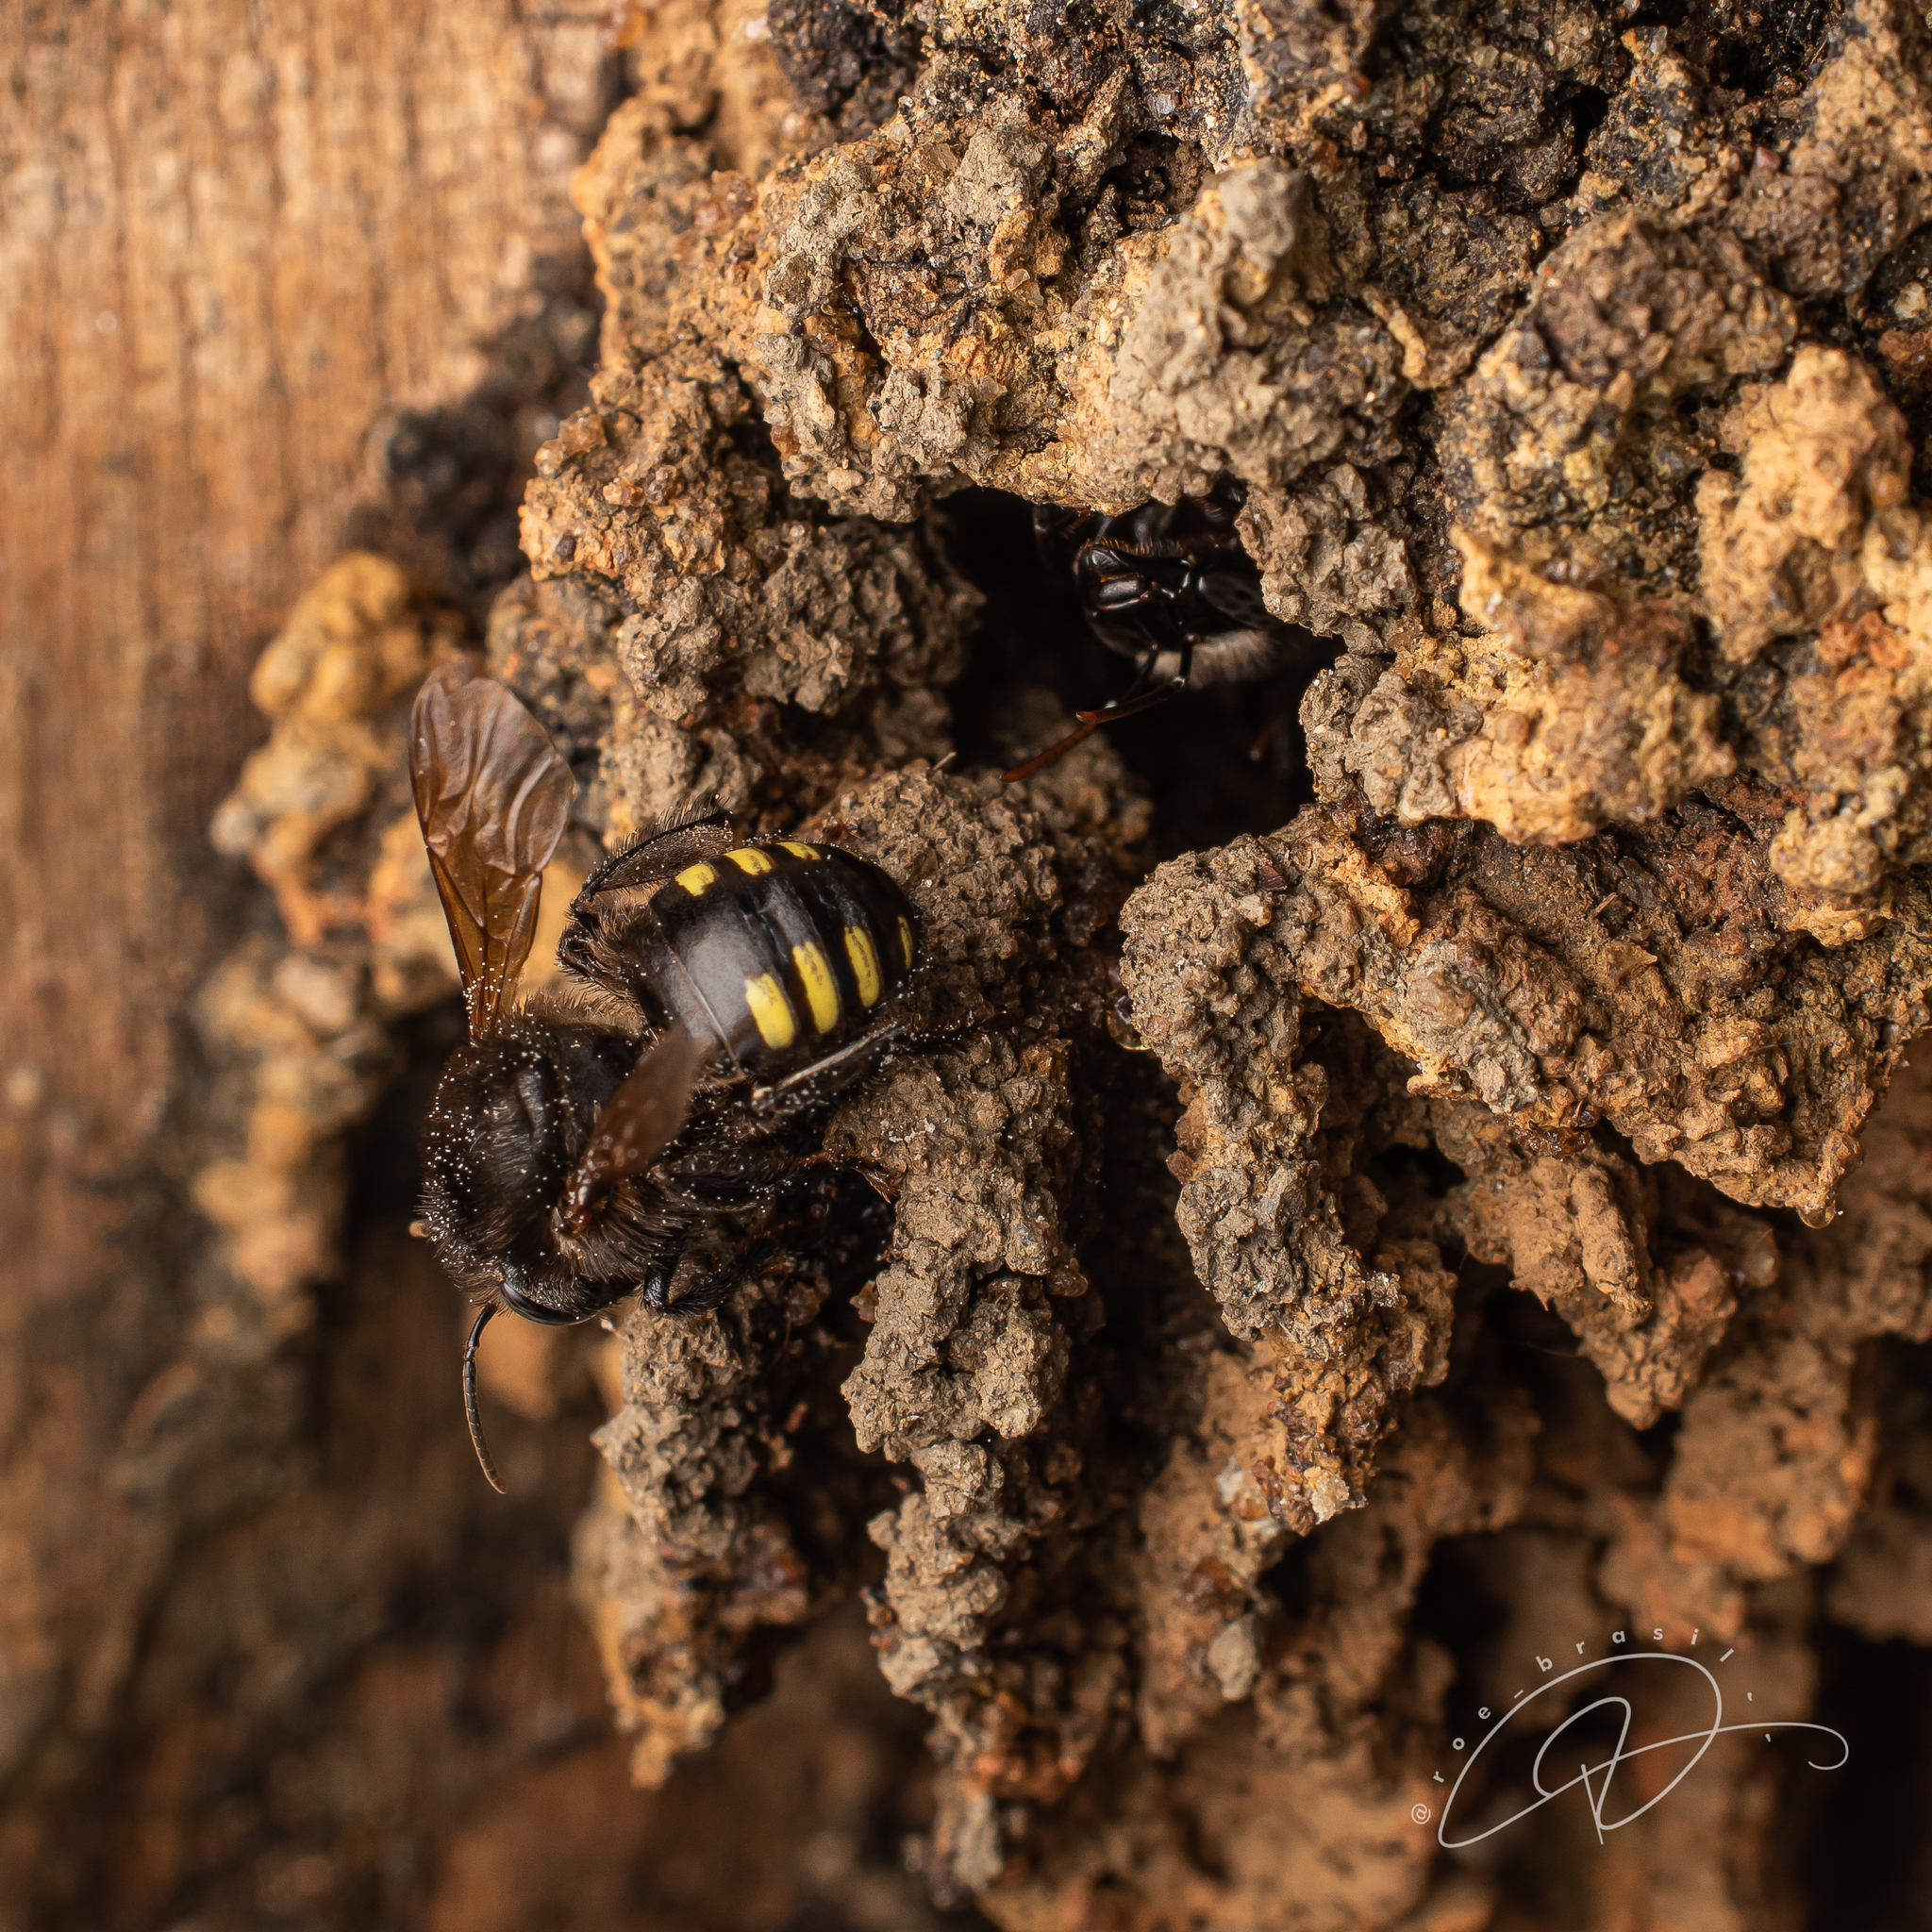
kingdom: Animalia
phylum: Arthropoda
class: Insecta
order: Hymenoptera
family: Apidae
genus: Melipona
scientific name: Melipona quadrifasciata
